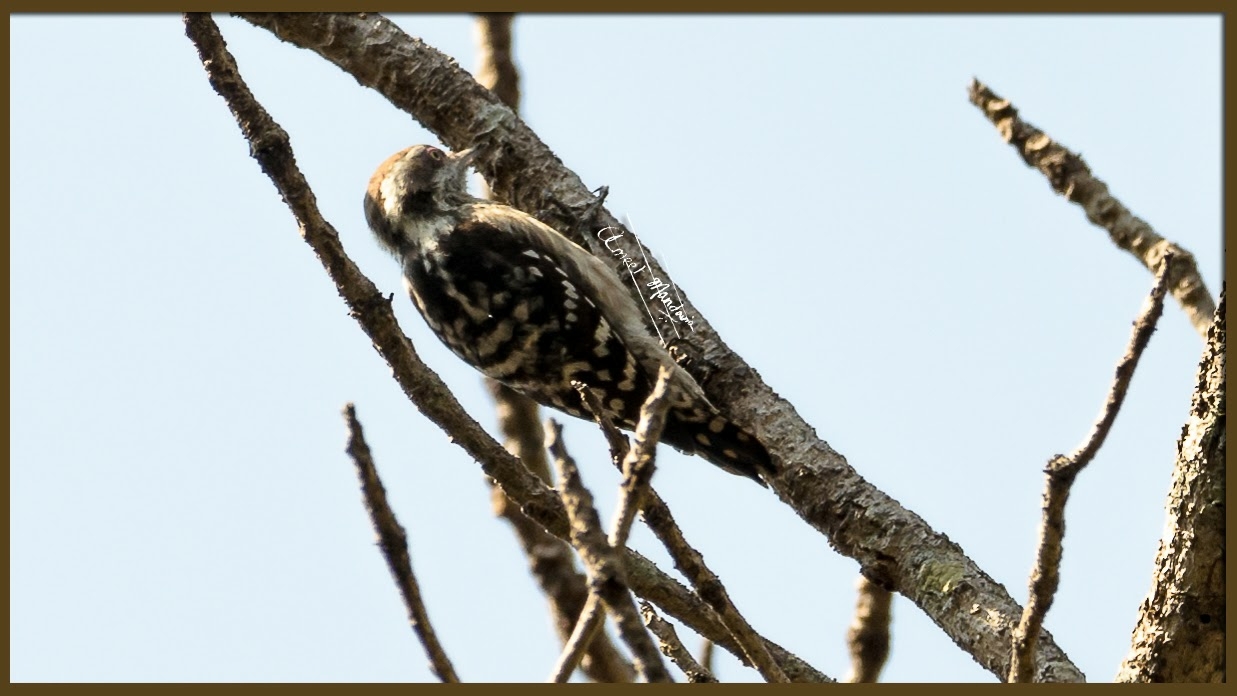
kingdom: Animalia
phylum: Chordata
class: Aves
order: Piciformes
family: Picidae
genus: Yungipicus
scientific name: Yungipicus nanus
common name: Brown-capped pygmy woodpecker
